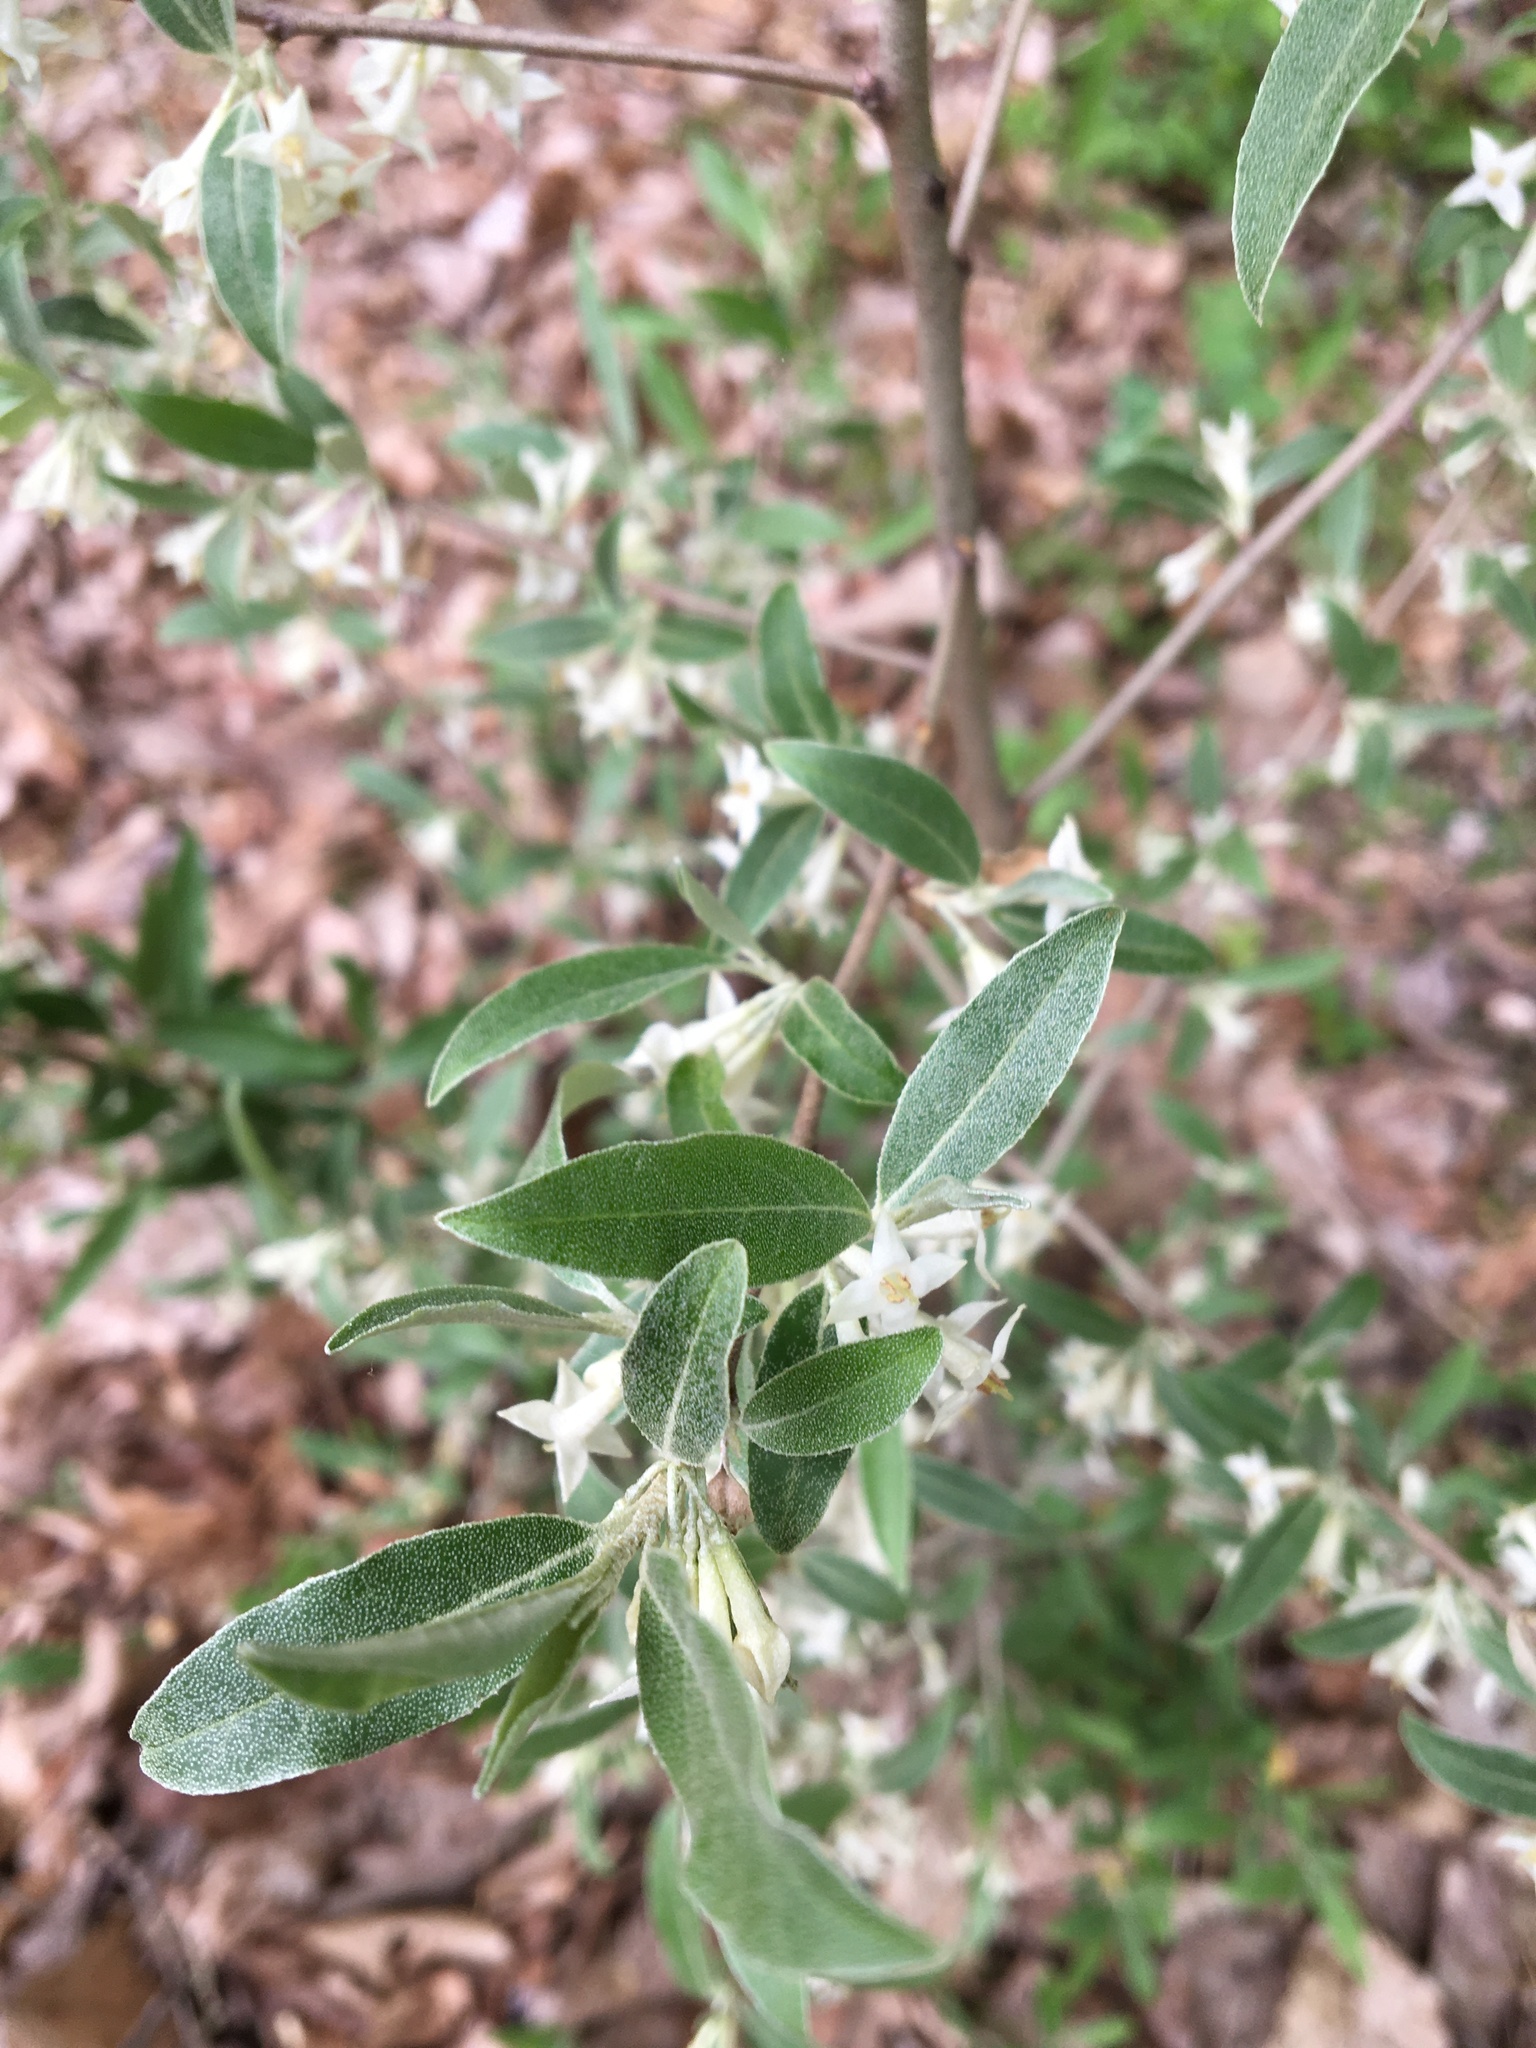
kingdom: Plantae
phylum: Tracheophyta
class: Magnoliopsida
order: Rosales
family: Elaeagnaceae
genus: Elaeagnus
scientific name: Elaeagnus umbellata
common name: Autumn olive
